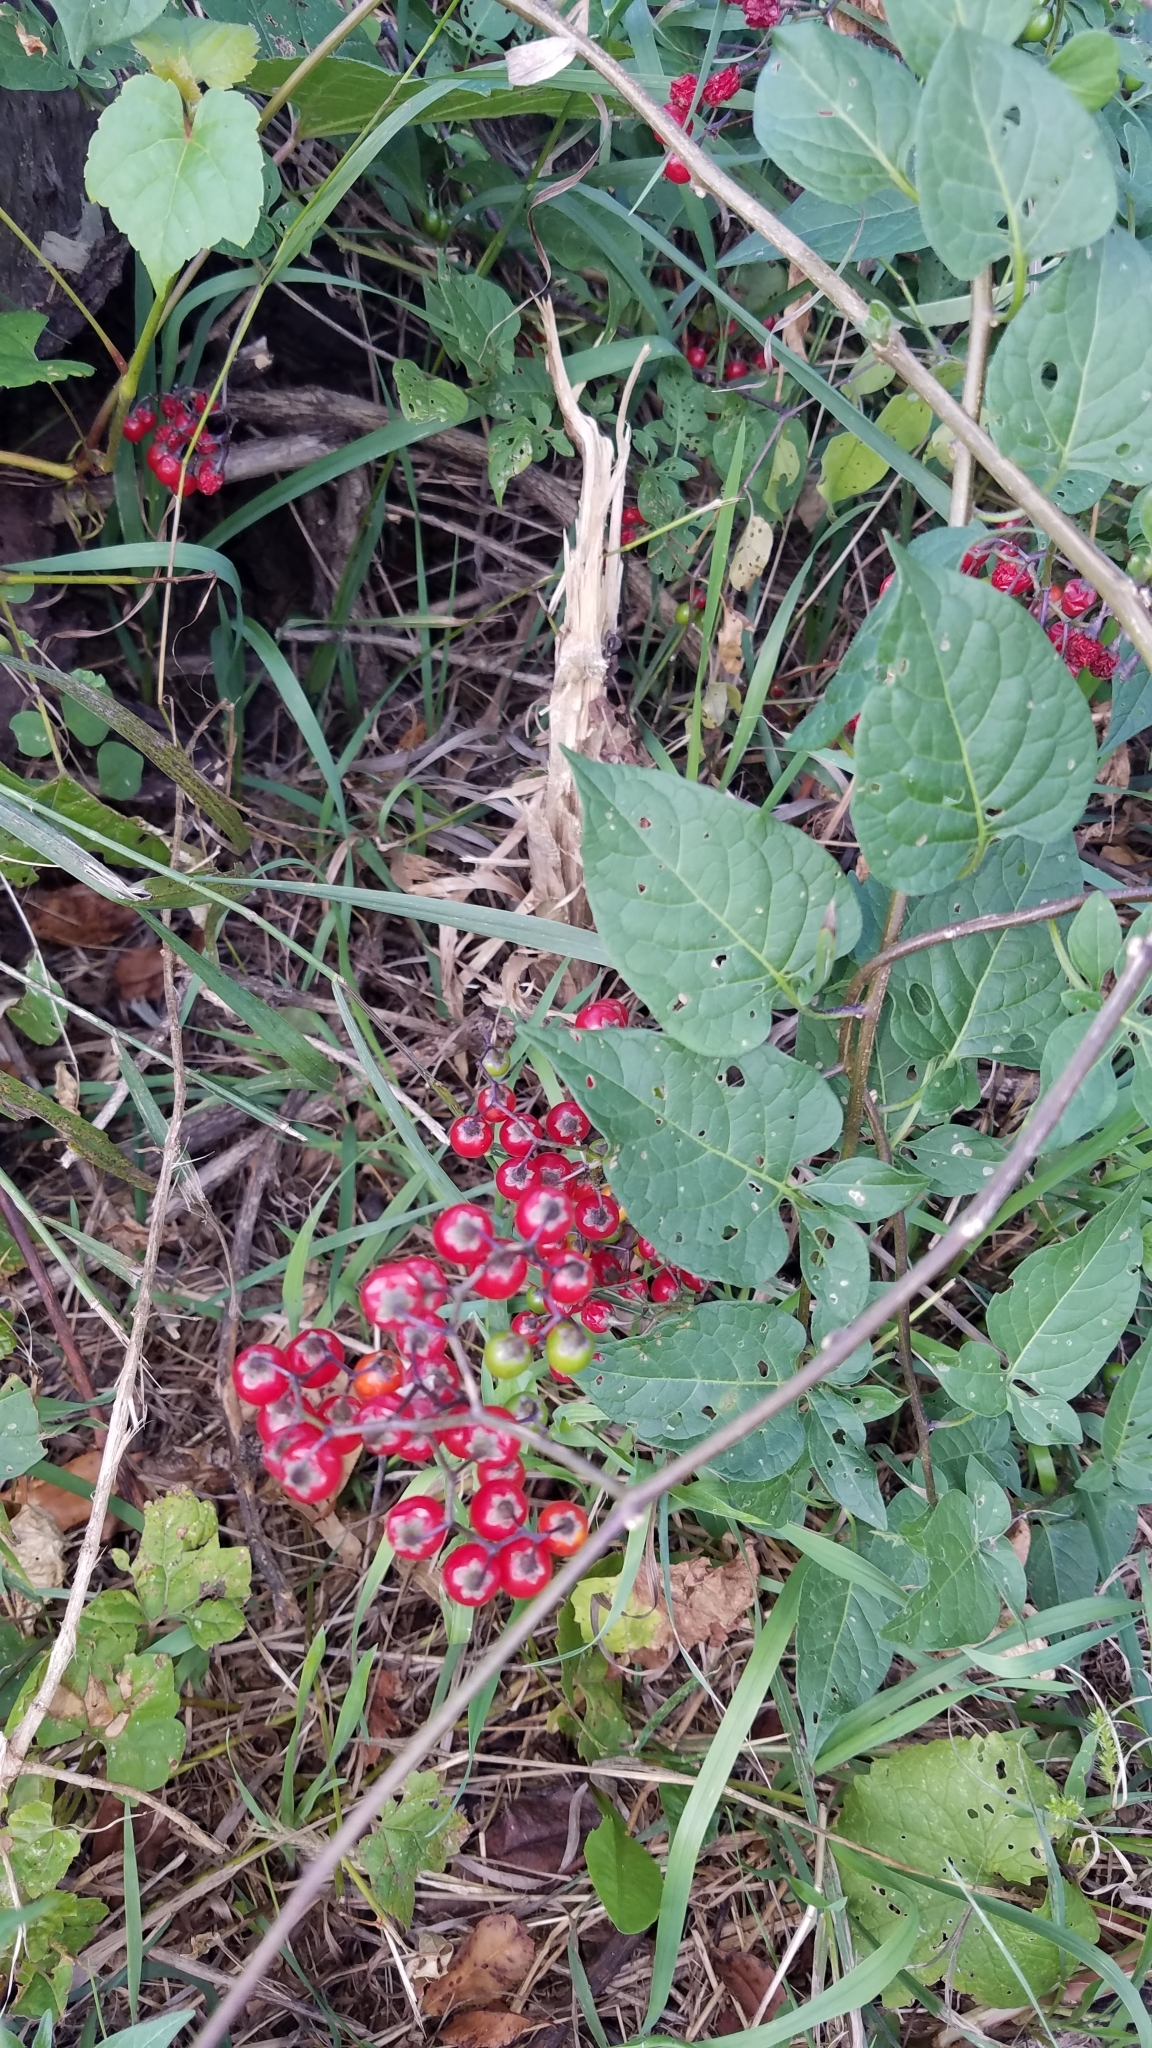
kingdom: Plantae
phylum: Tracheophyta
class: Magnoliopsida
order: Solanales
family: Solanaceae
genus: Solanum
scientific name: Solanum dulcamara
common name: Climbing nightshade
